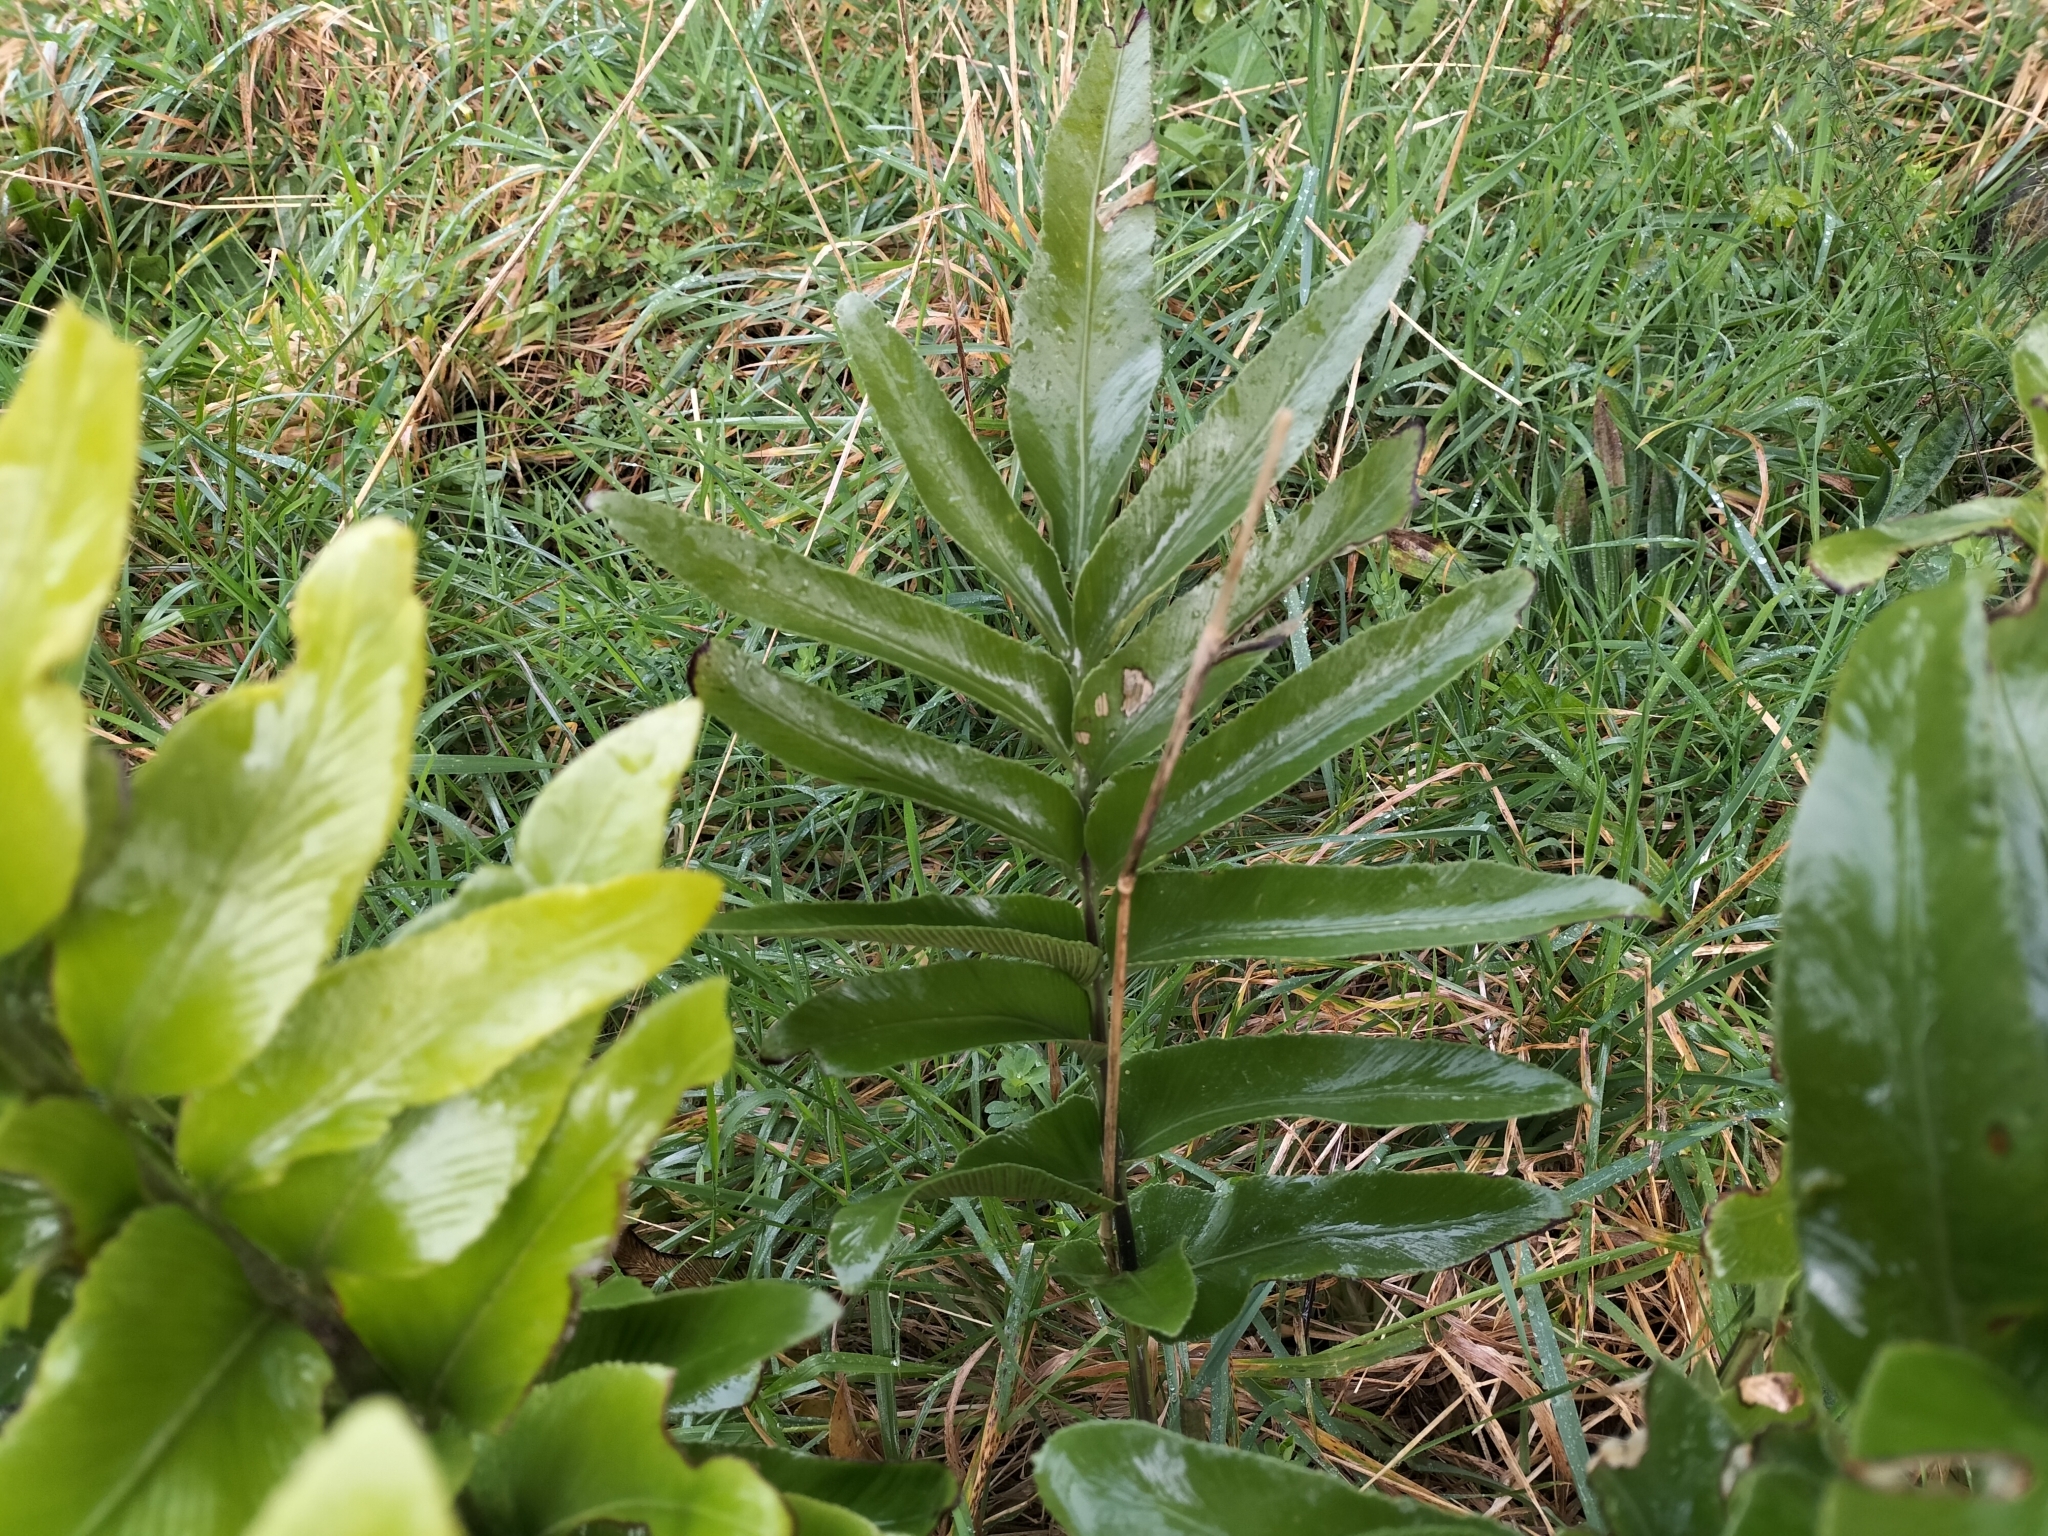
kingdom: Plantae
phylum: Tracheophyta
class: Polypodiopsida
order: Polypodiales
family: Aspleniaceae
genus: Asplenium
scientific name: Asplenium oblongifolium
